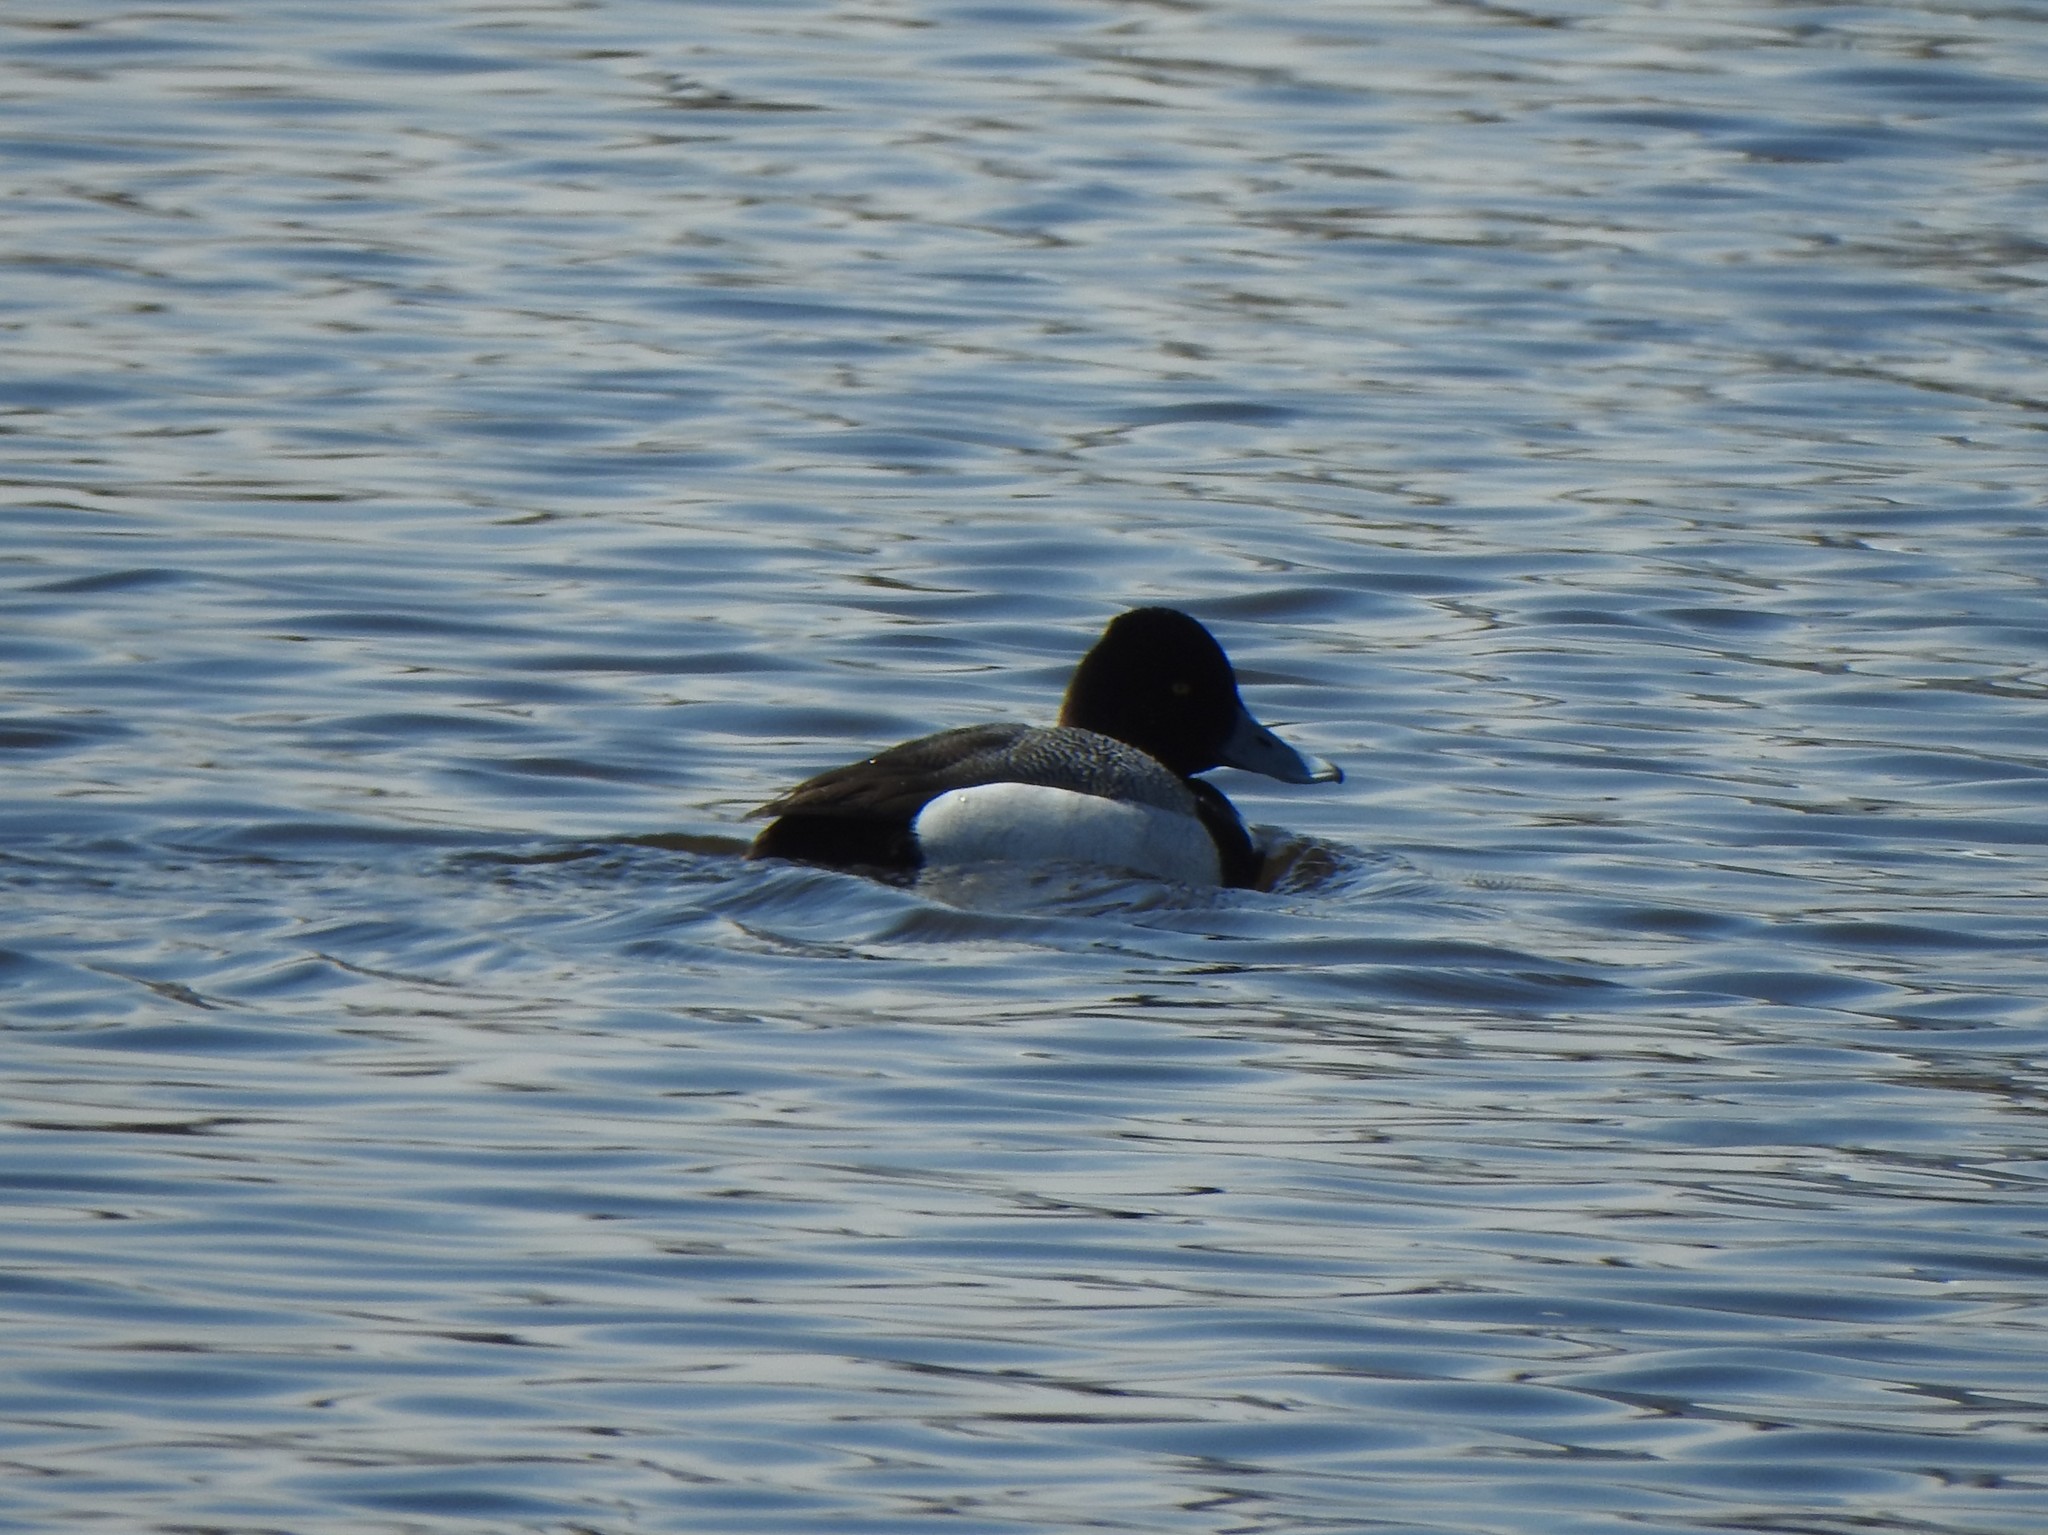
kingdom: Animalia
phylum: Chordata
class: Aves
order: Anseriformes
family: Anatidae
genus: Aythya
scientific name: Aythya affinis
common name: Lesser scaup
